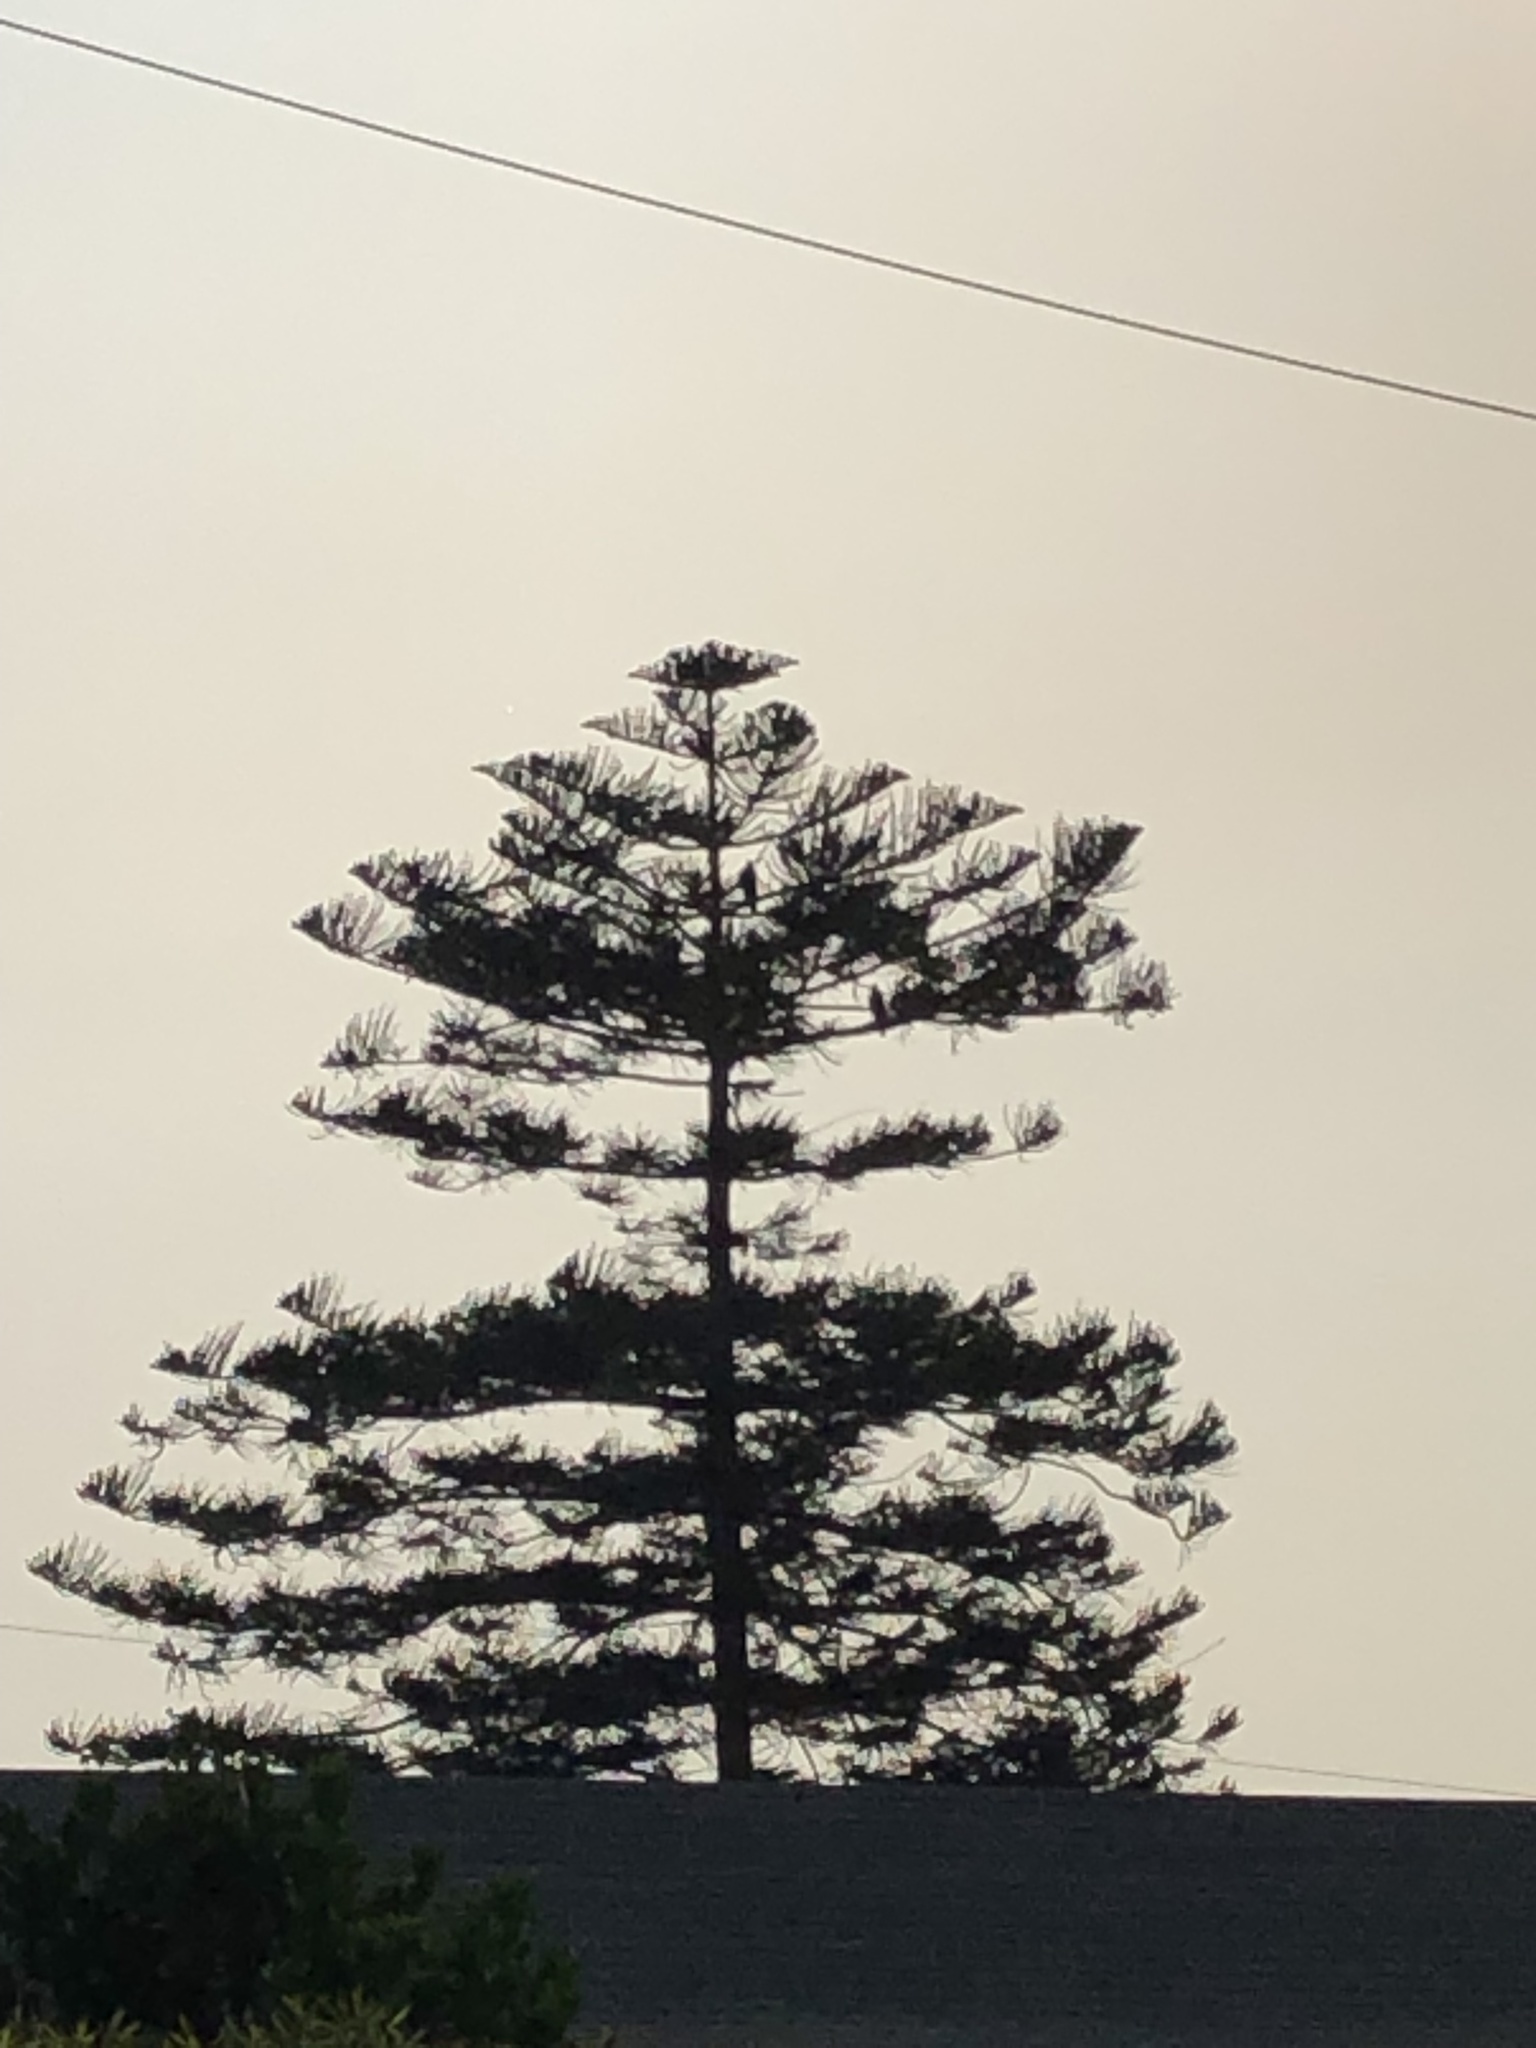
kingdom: Animalia
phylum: Chordata
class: Aves
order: Accipitriformes
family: Accipitridae
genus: Parabuteo
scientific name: Parabuteo unicinctus
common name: Harris's hawk
